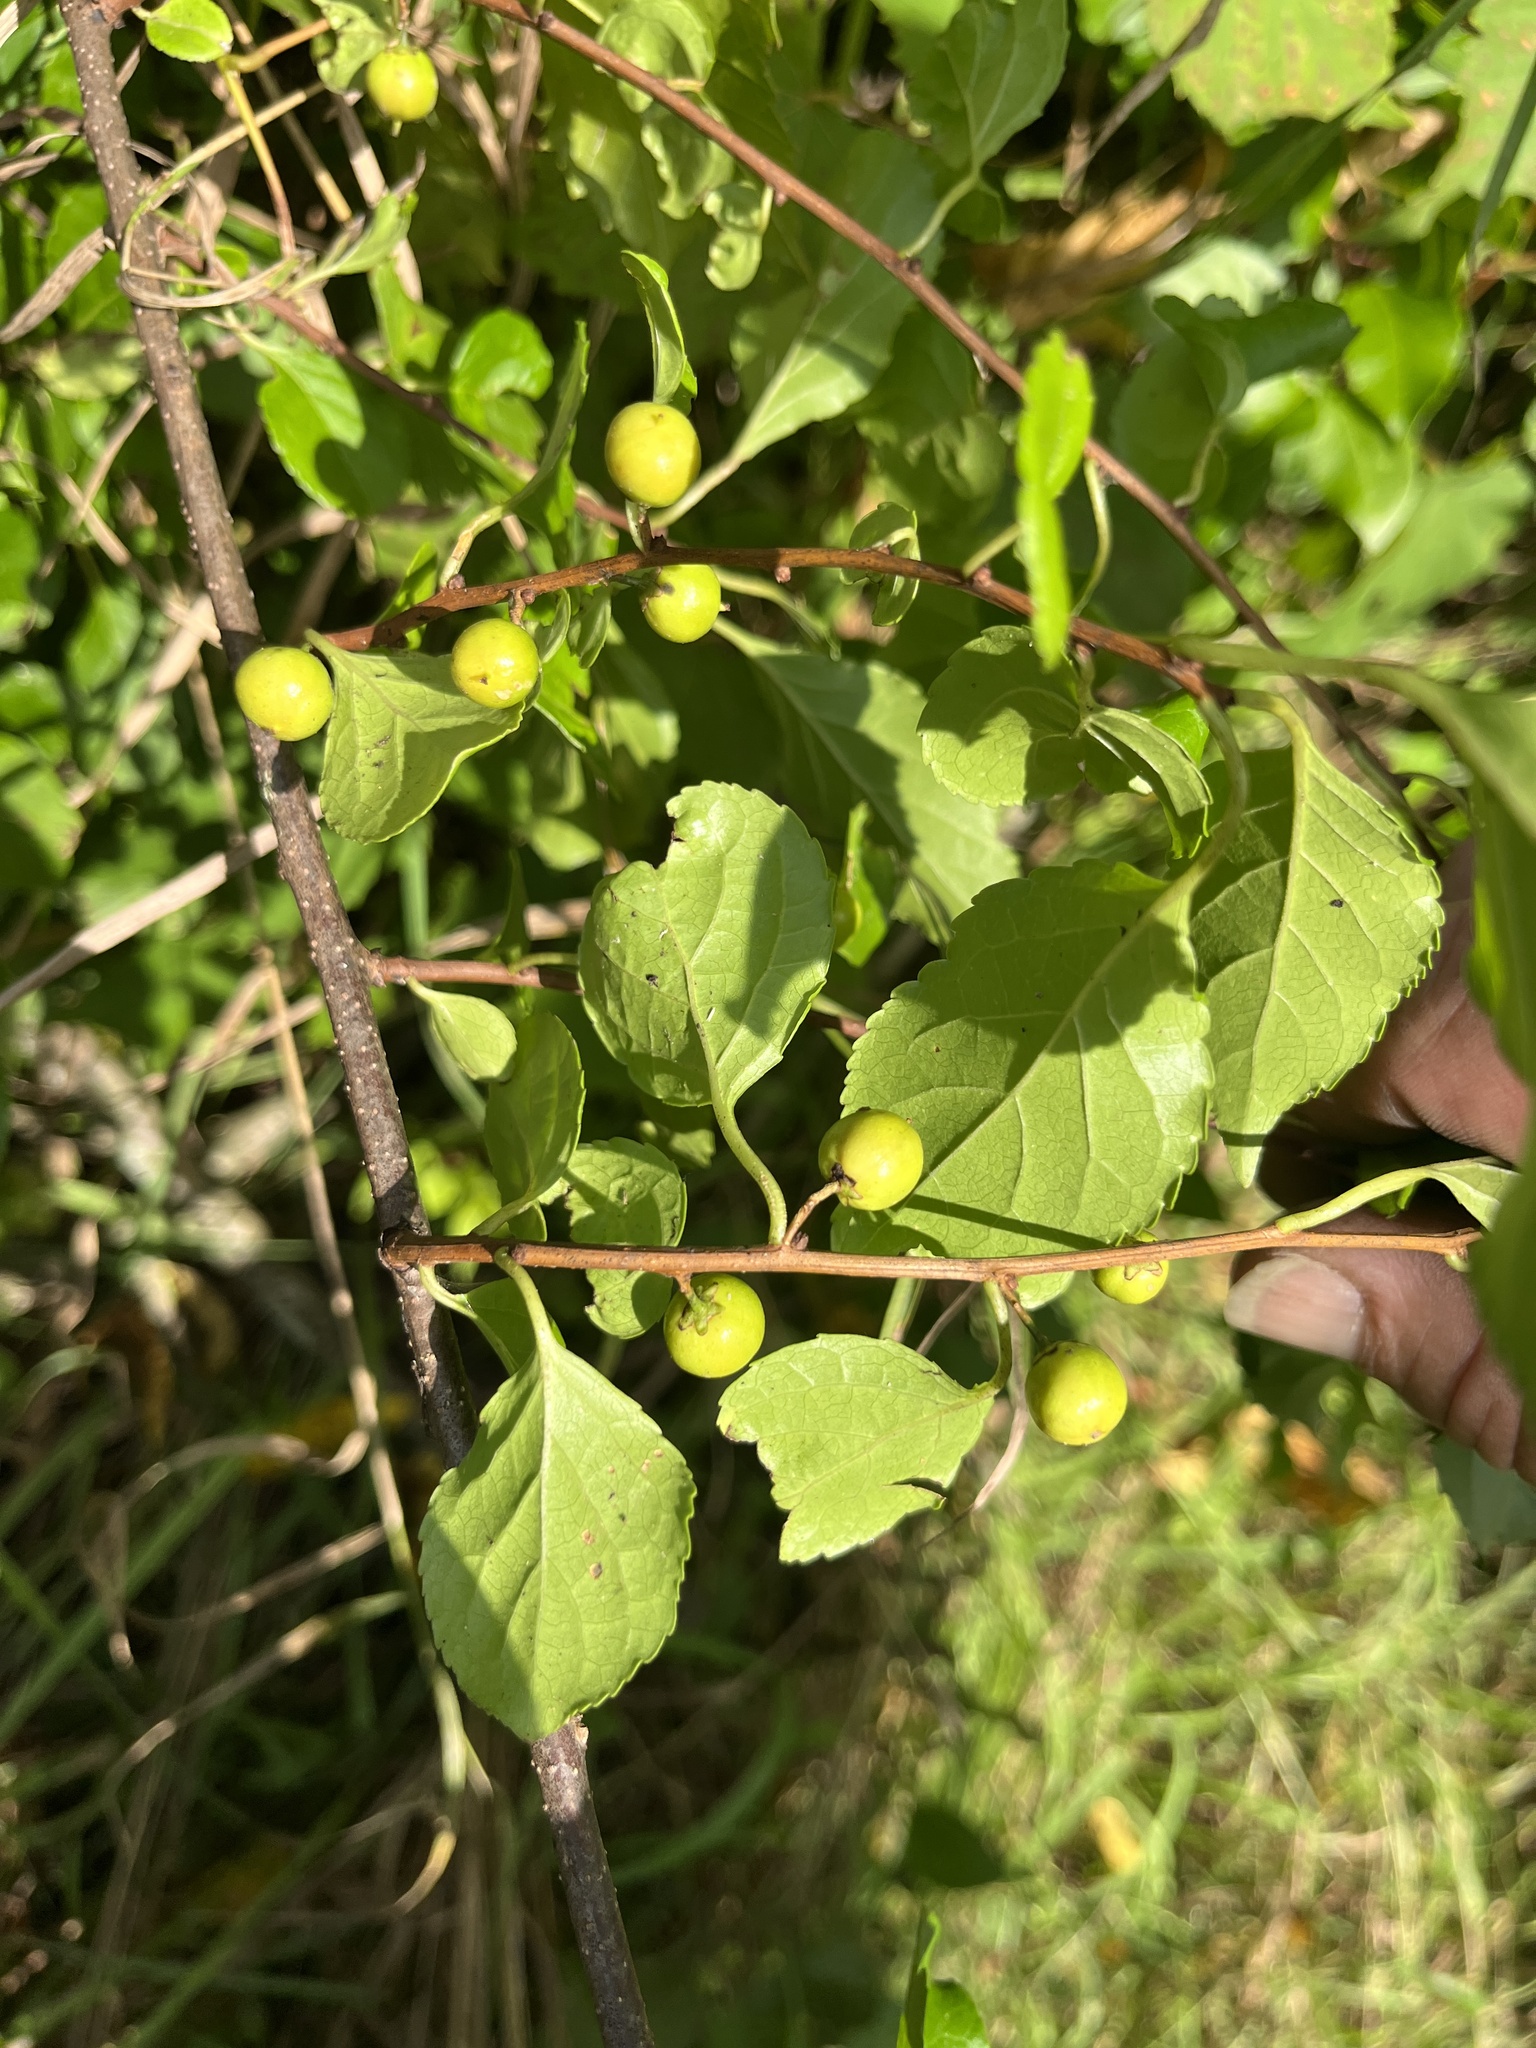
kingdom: Plantae
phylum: Tracheophyta
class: Magnoliopsida
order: Celastrales
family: Celastraceae
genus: Celastrus
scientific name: Celastrus orbiculatus
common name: Oriental bittersweet
